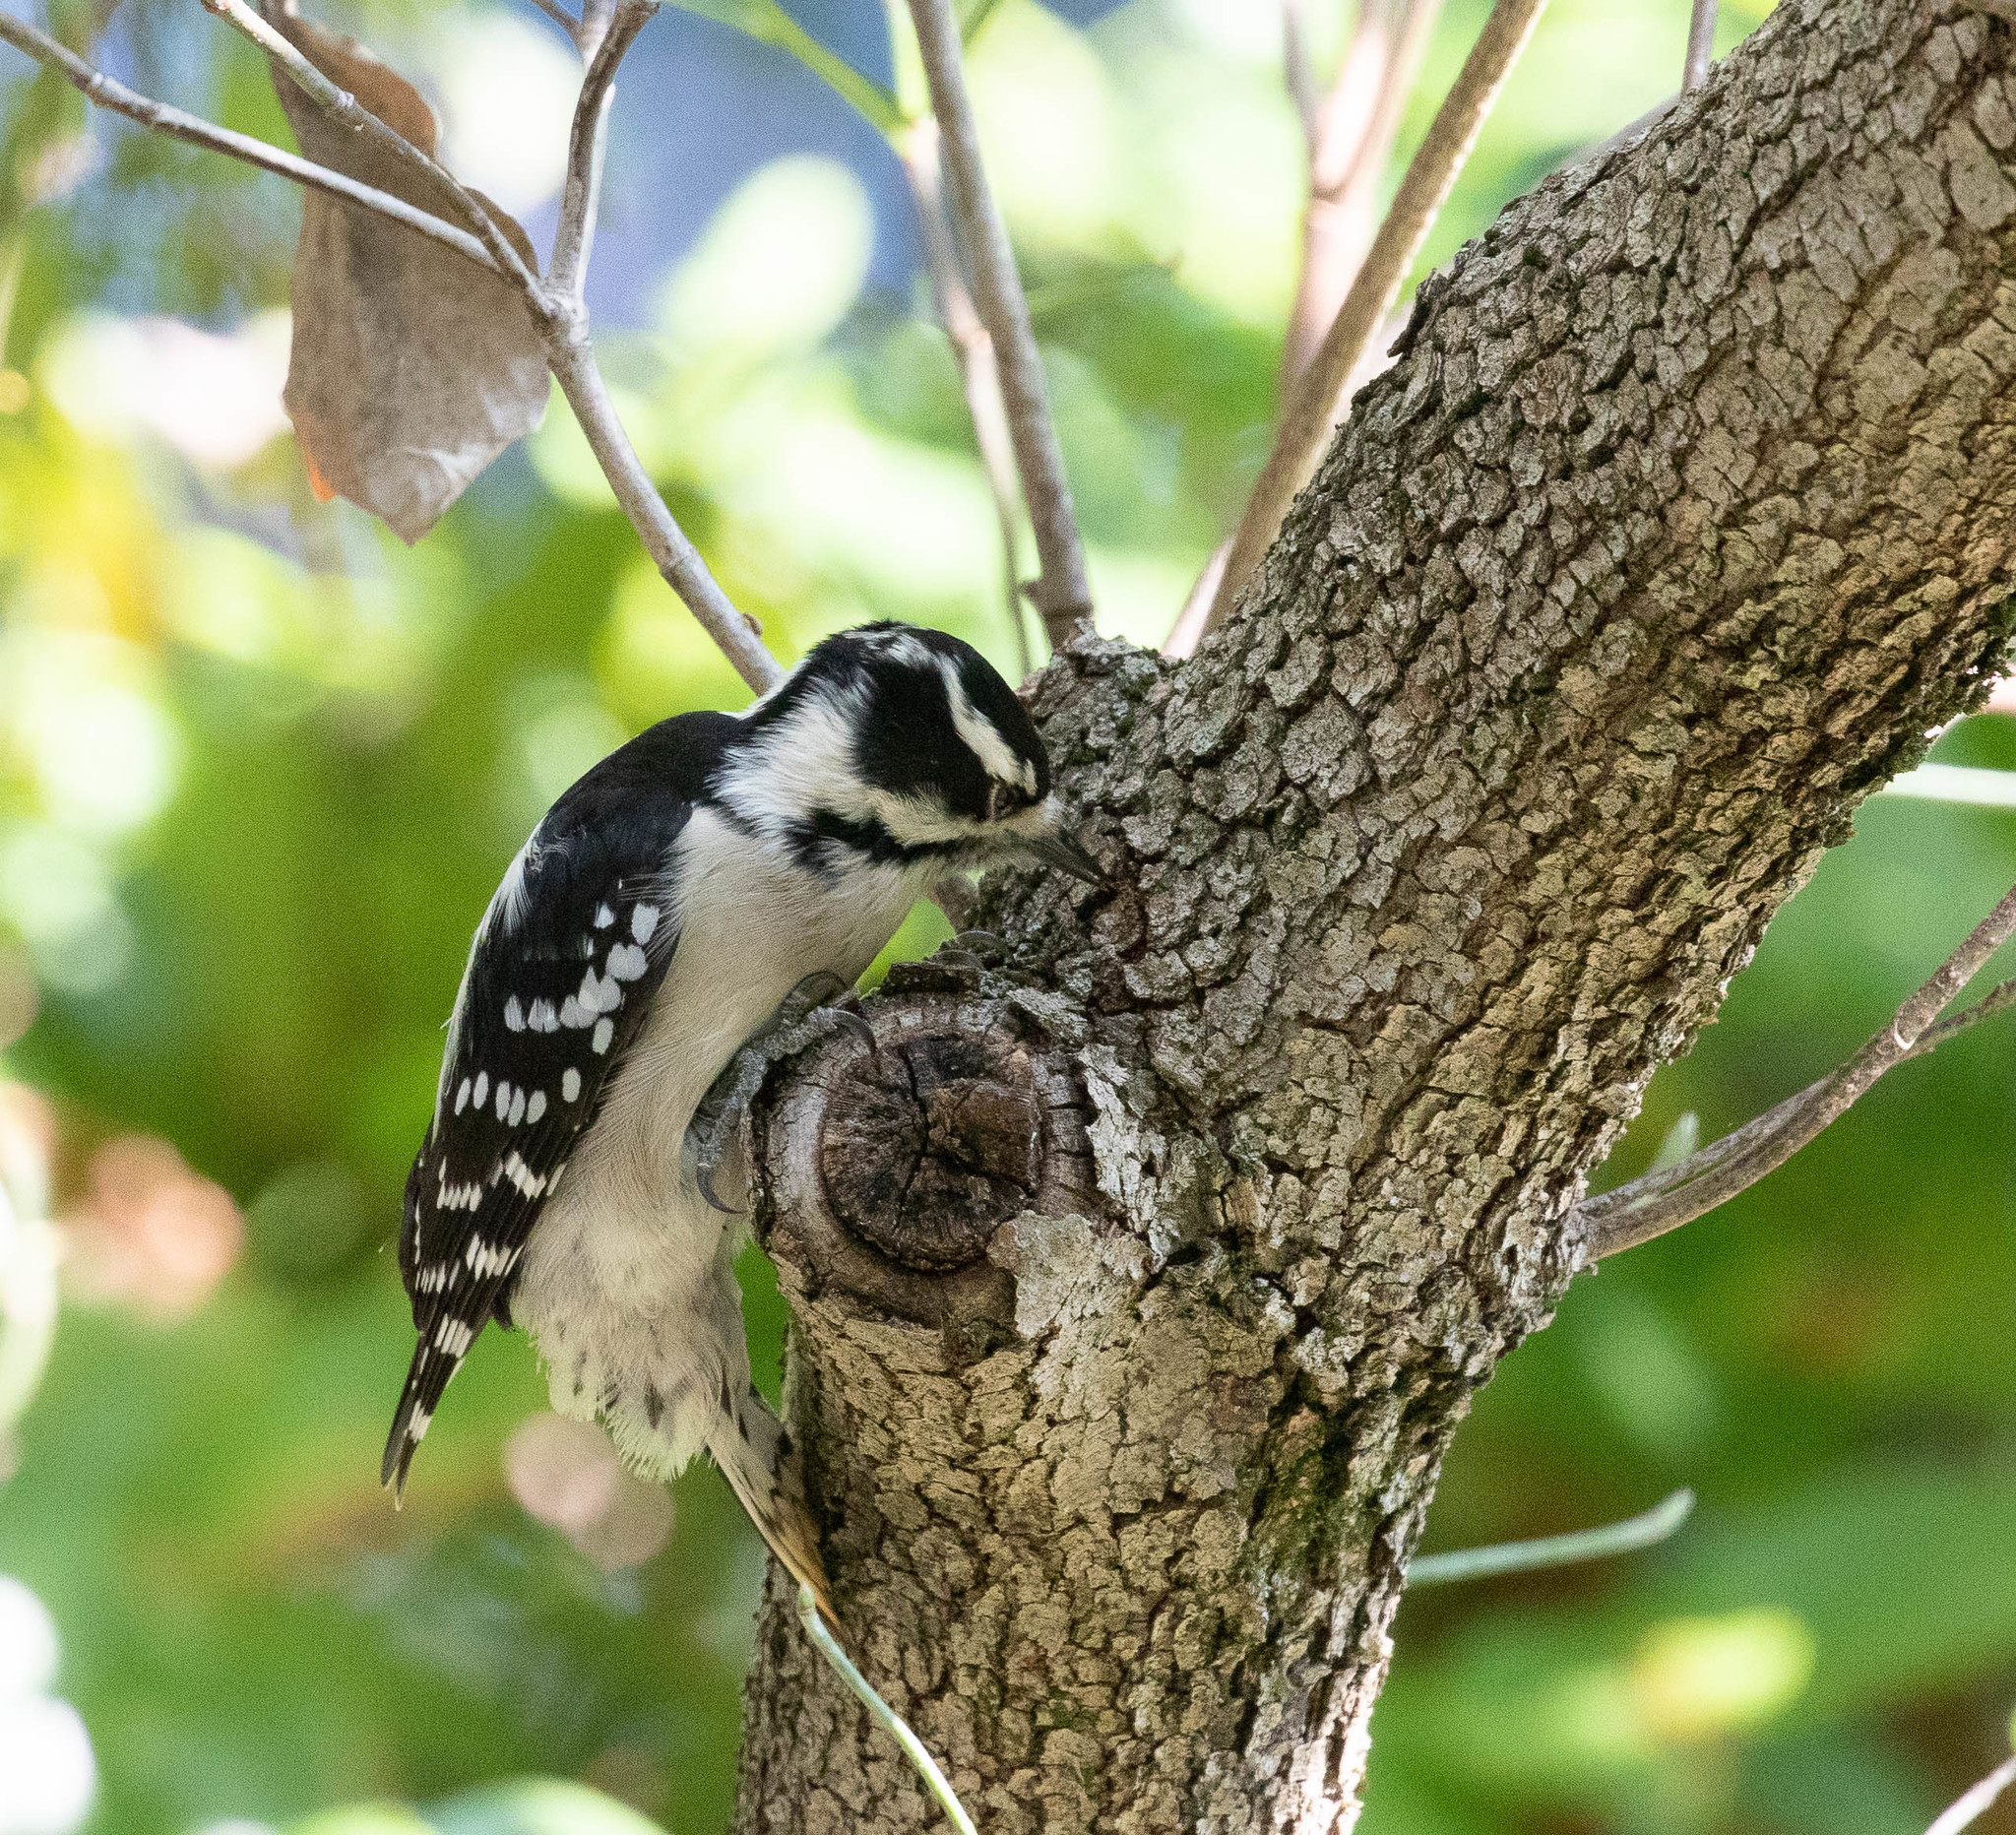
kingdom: Animalia
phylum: Chordata
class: Aves
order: Piciformes
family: Picidae
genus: Dryobates
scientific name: Dryobates pubescens
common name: Downy woodpecker
